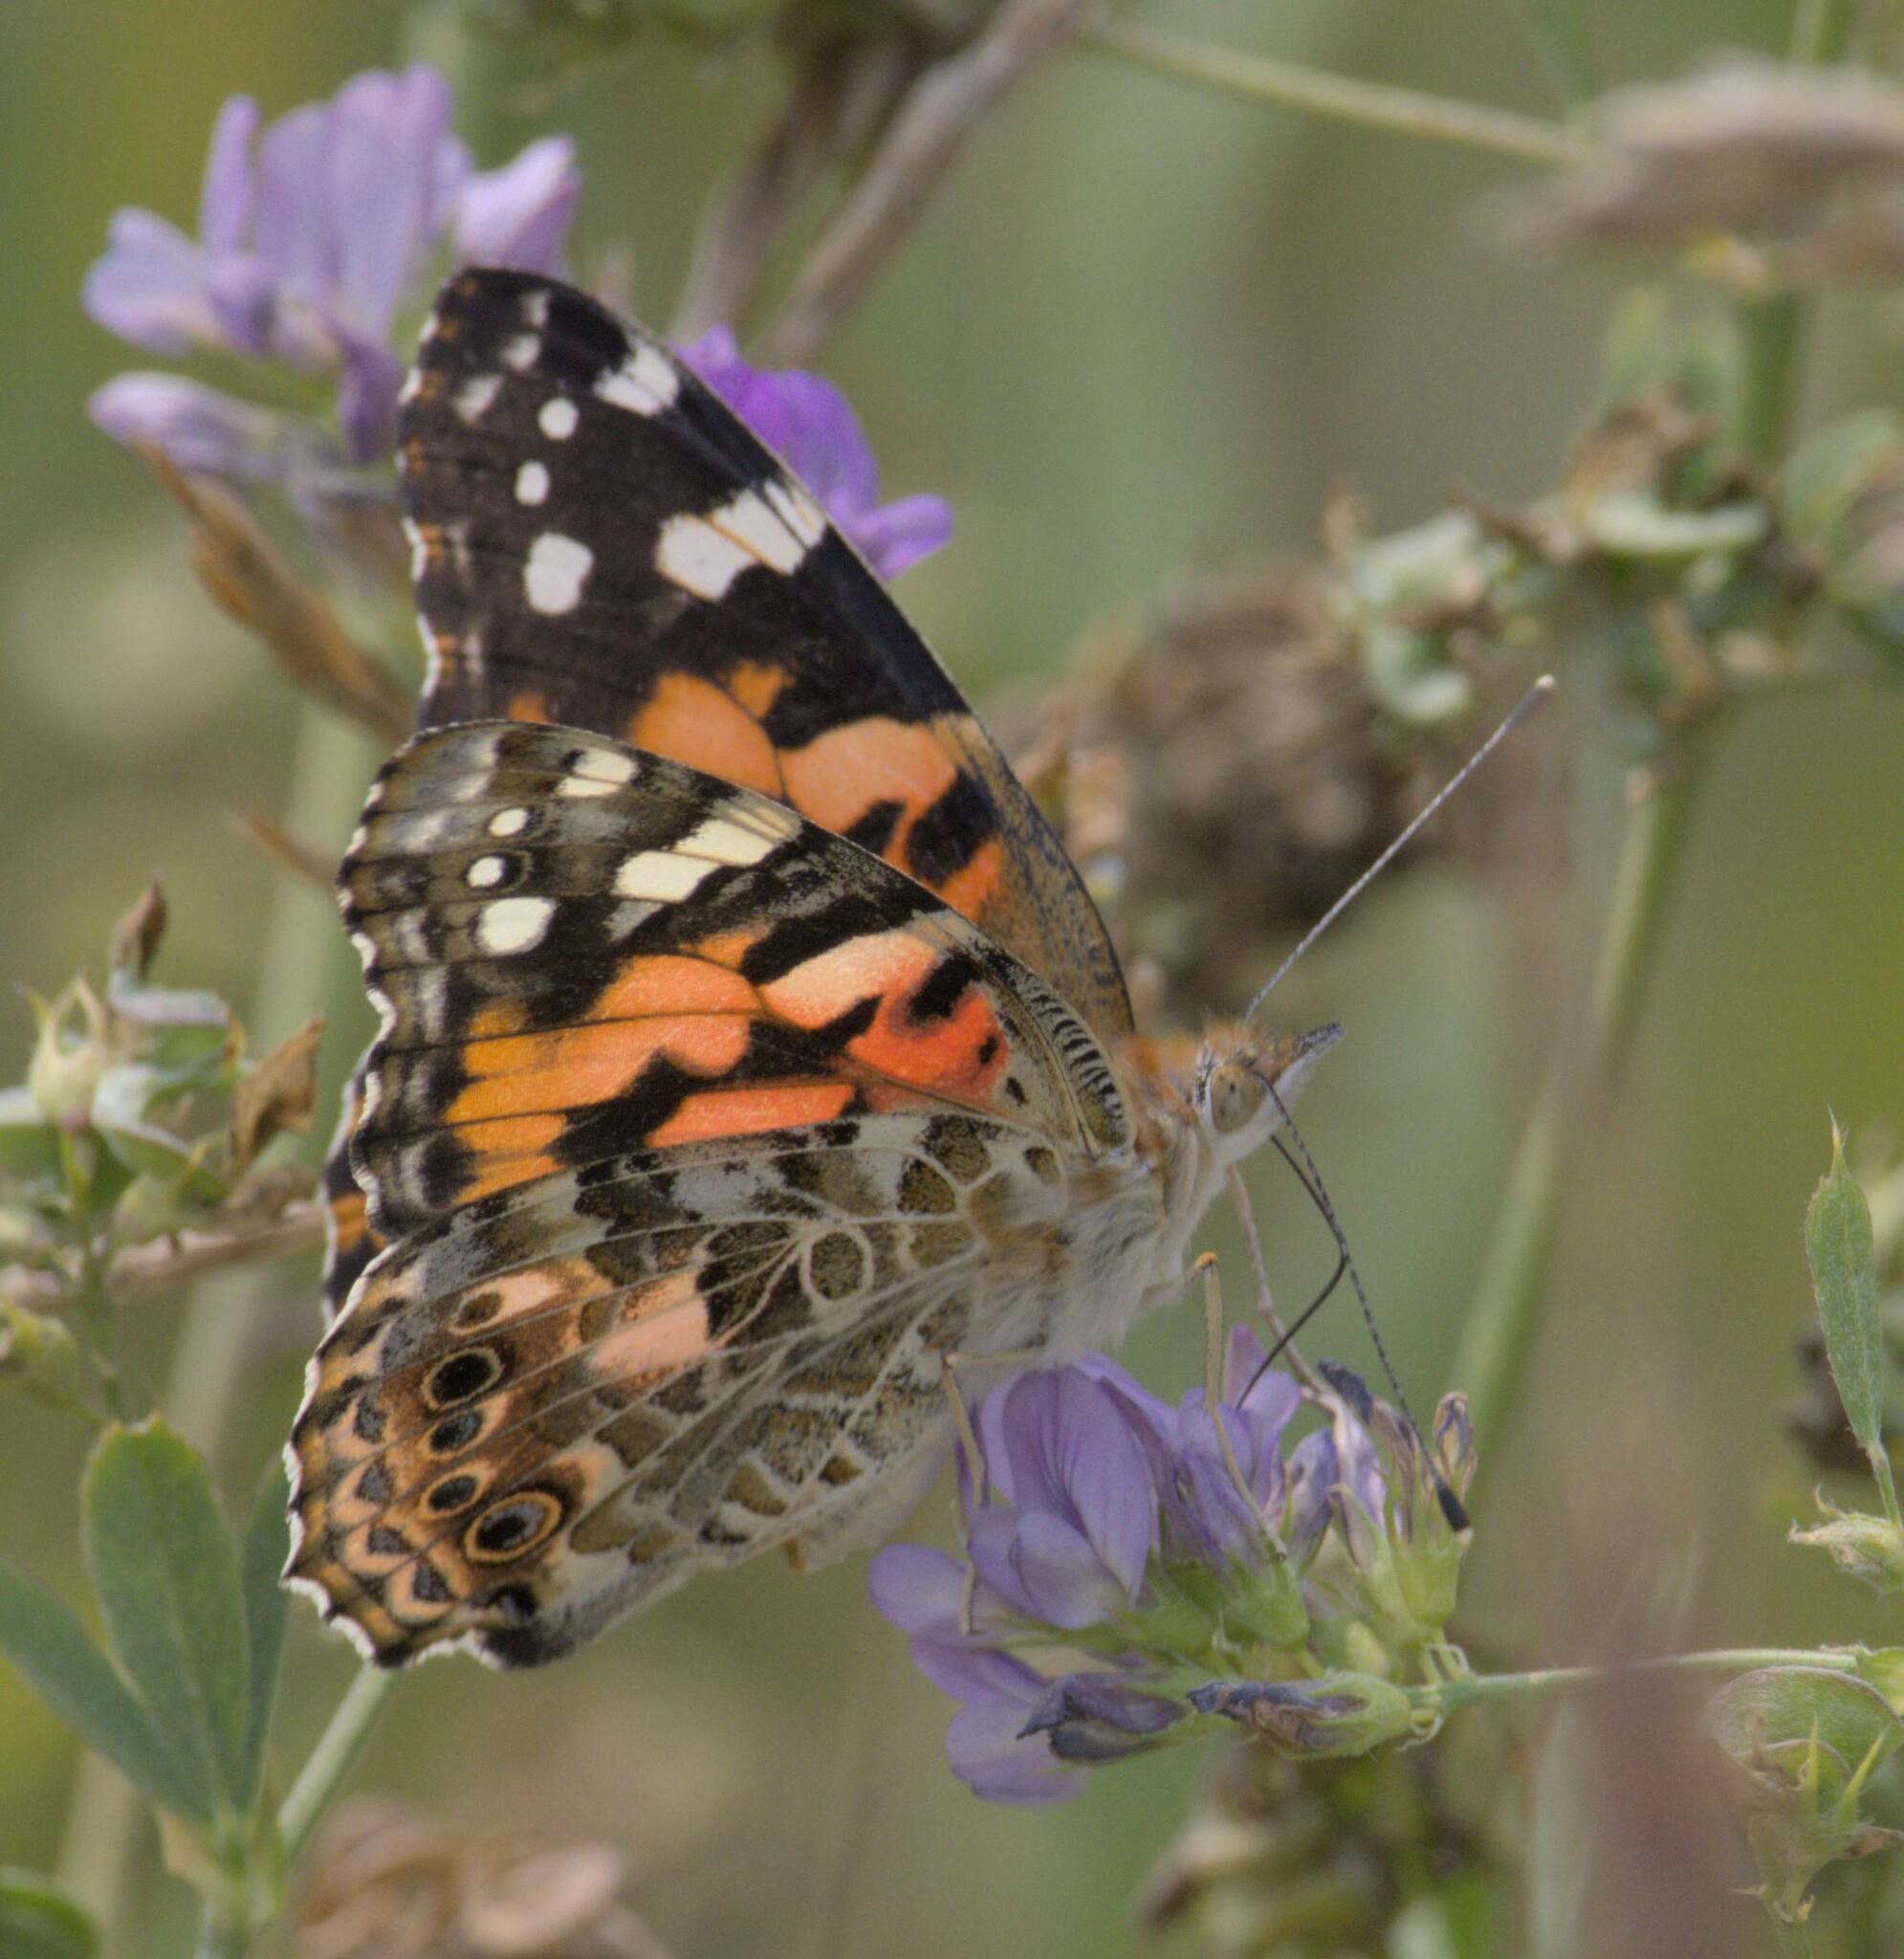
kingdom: Animalia
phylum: Arthropoda
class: Insecta
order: Lepidoptera
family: Nymphalidae
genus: Vanessa
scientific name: Vanessa cardui
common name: Painted lady
